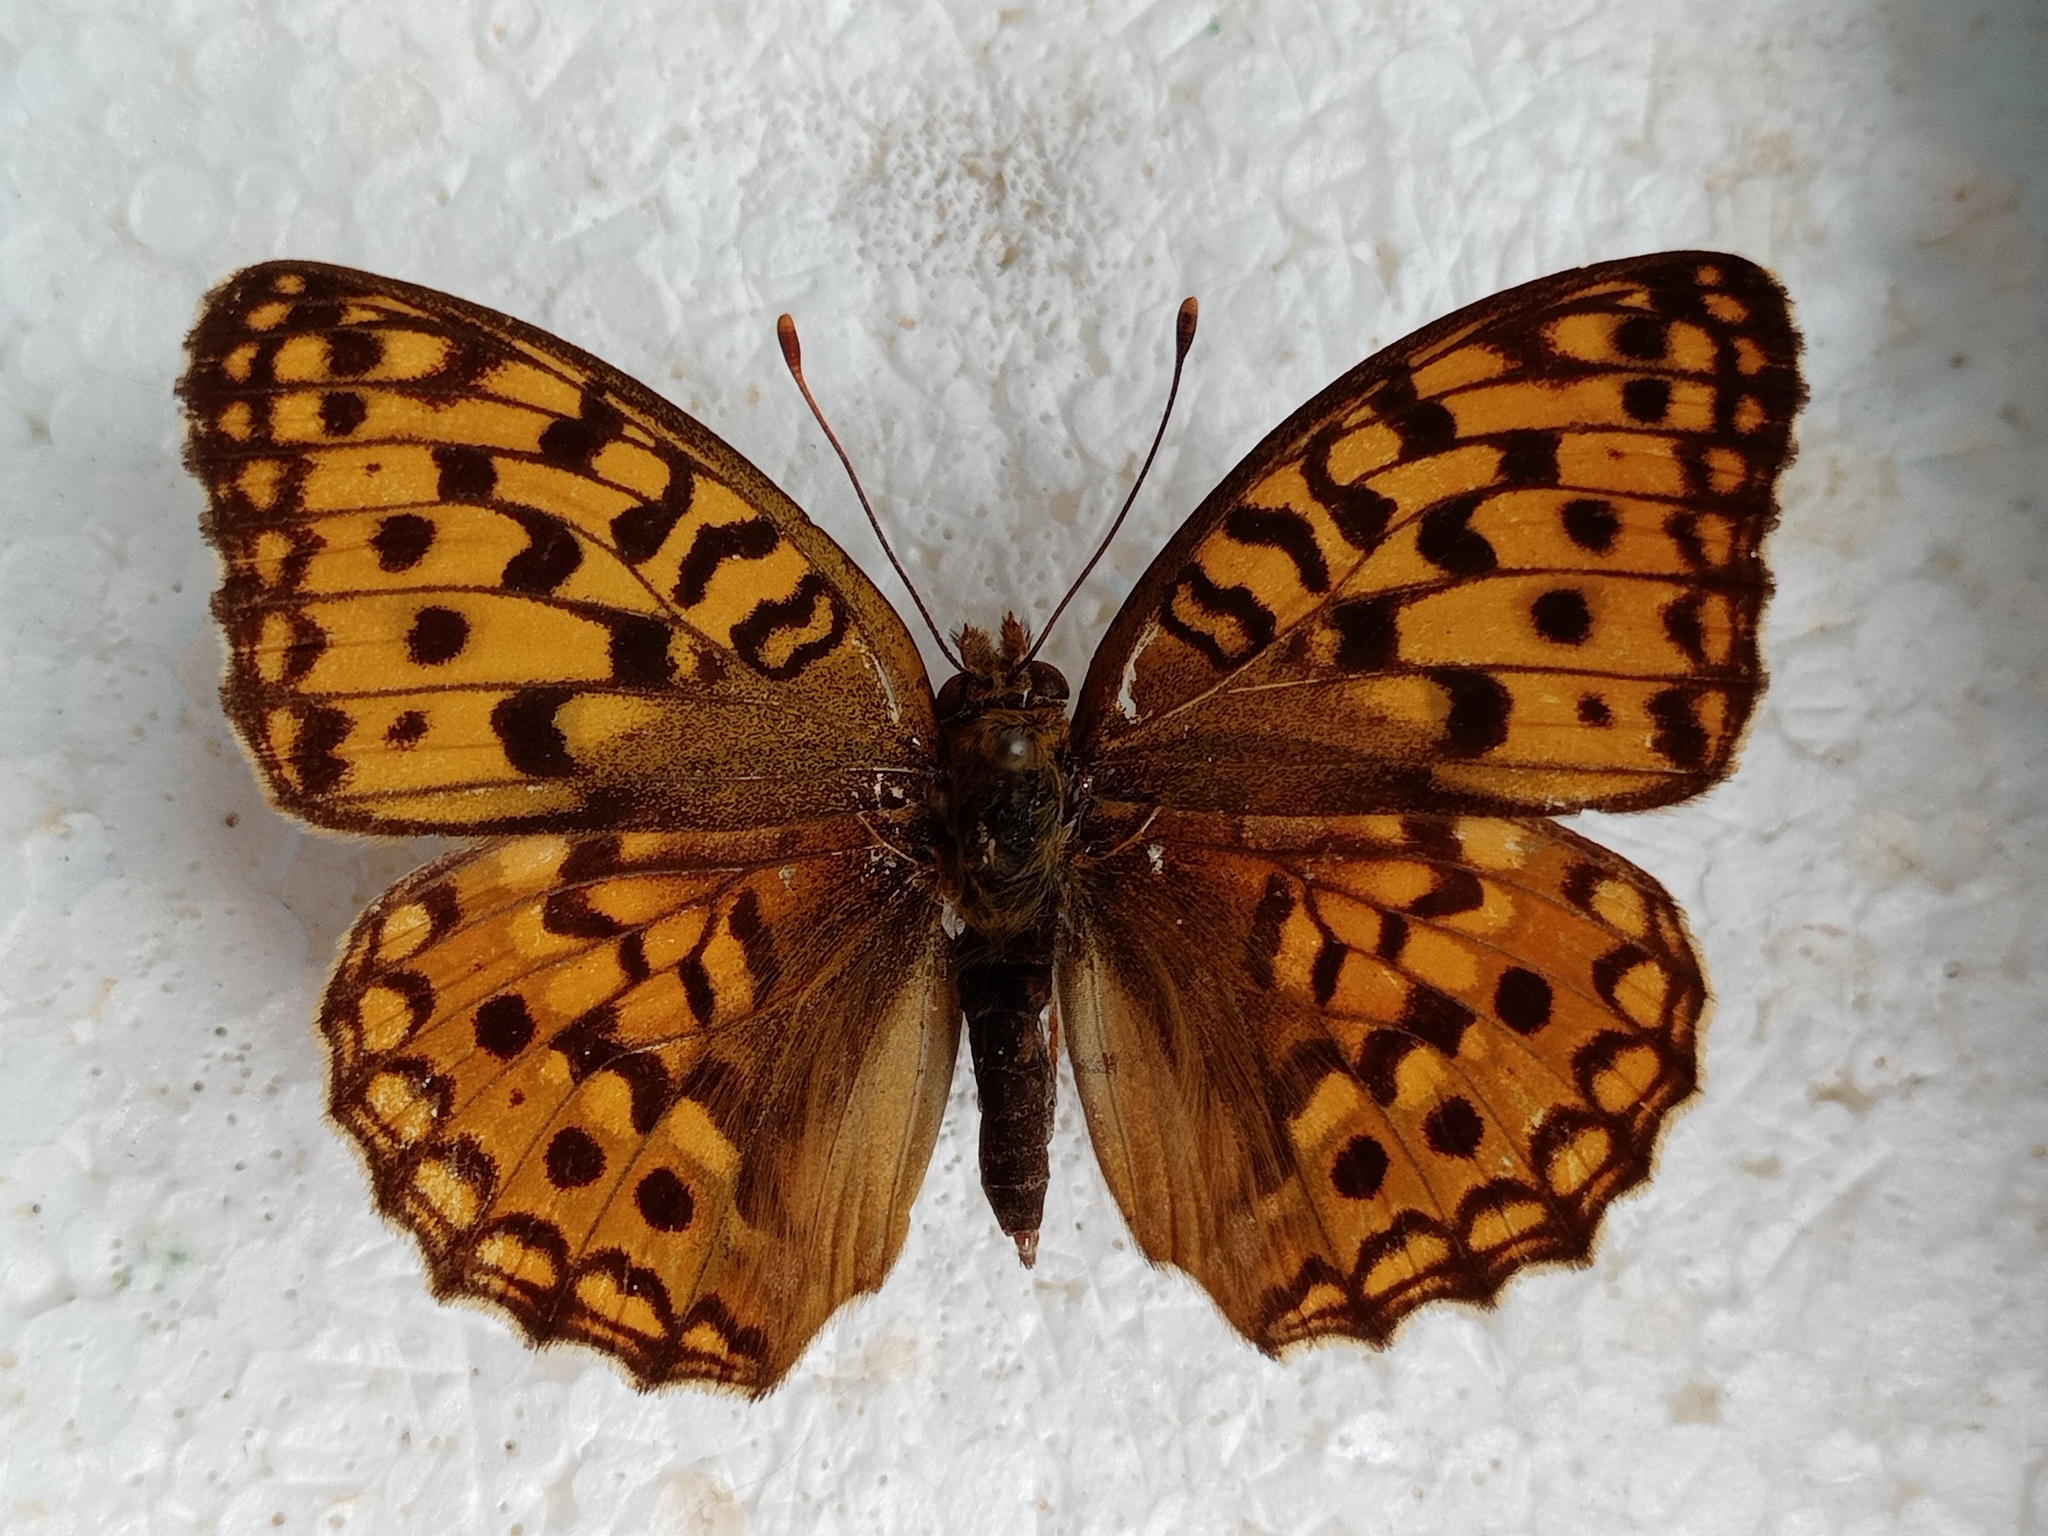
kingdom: Animalia
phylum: Arthropoda
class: Insecta
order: Lepidoptera
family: Nymphalidae
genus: Fabriciana
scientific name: Fabriciana adippe
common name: High brown fritillary
